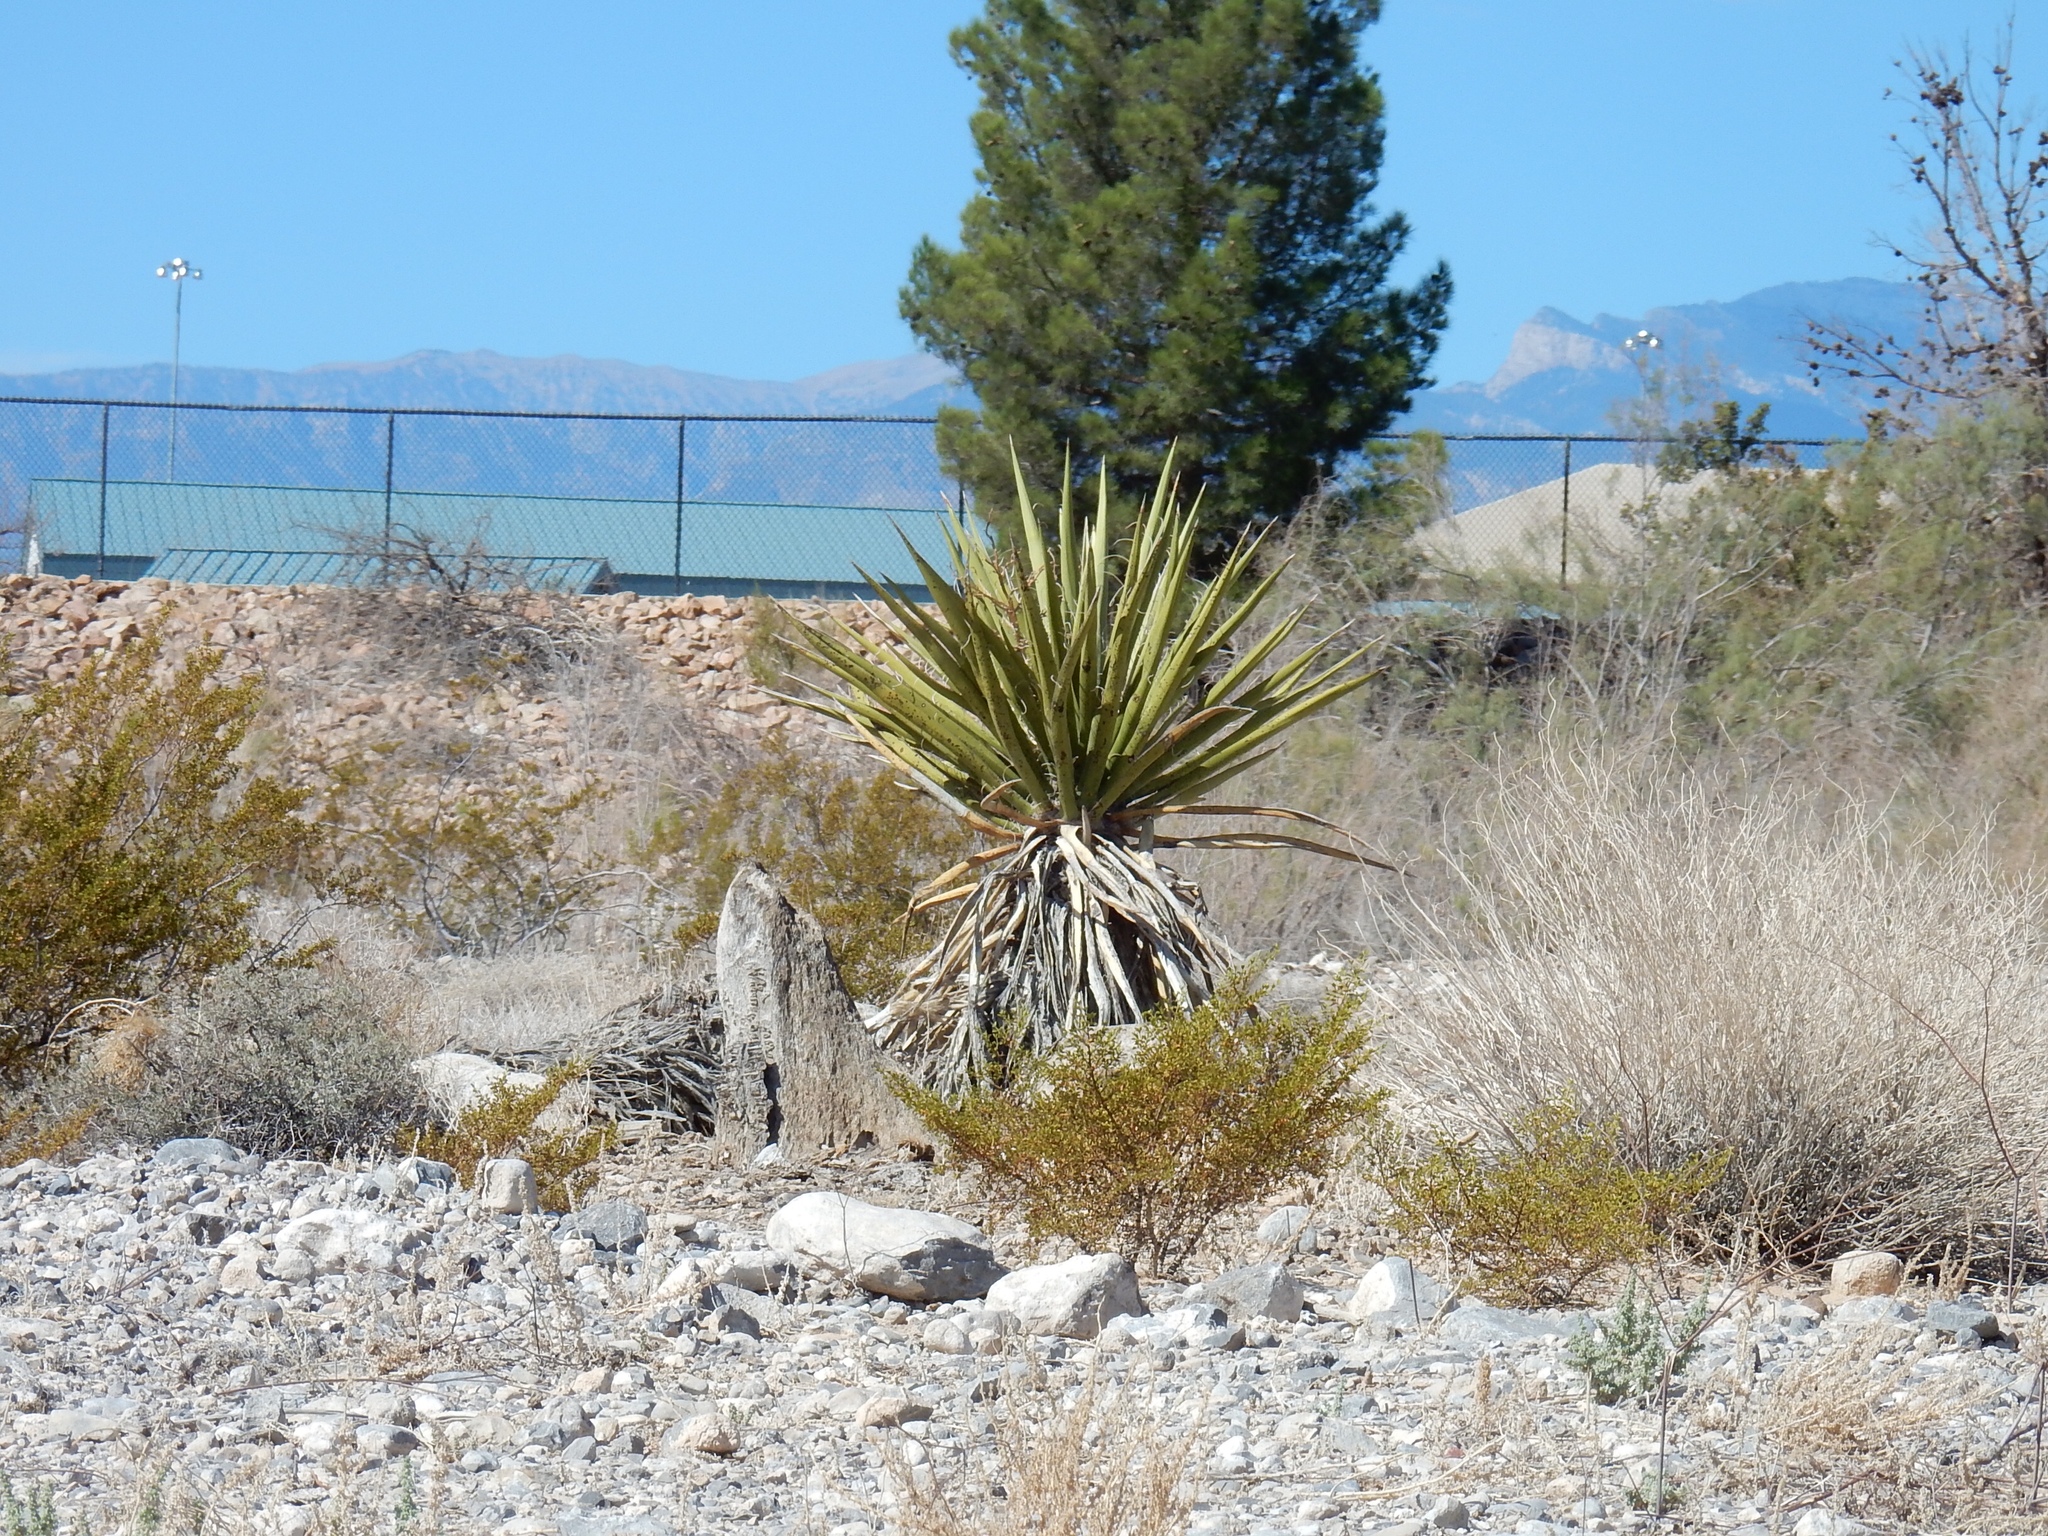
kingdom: Plantae
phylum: Tracheophyta
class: Liliopsida
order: Asparagales
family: Asparagaceae
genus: Yucca
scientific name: Yucca schidigera
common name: Mojave yucca
